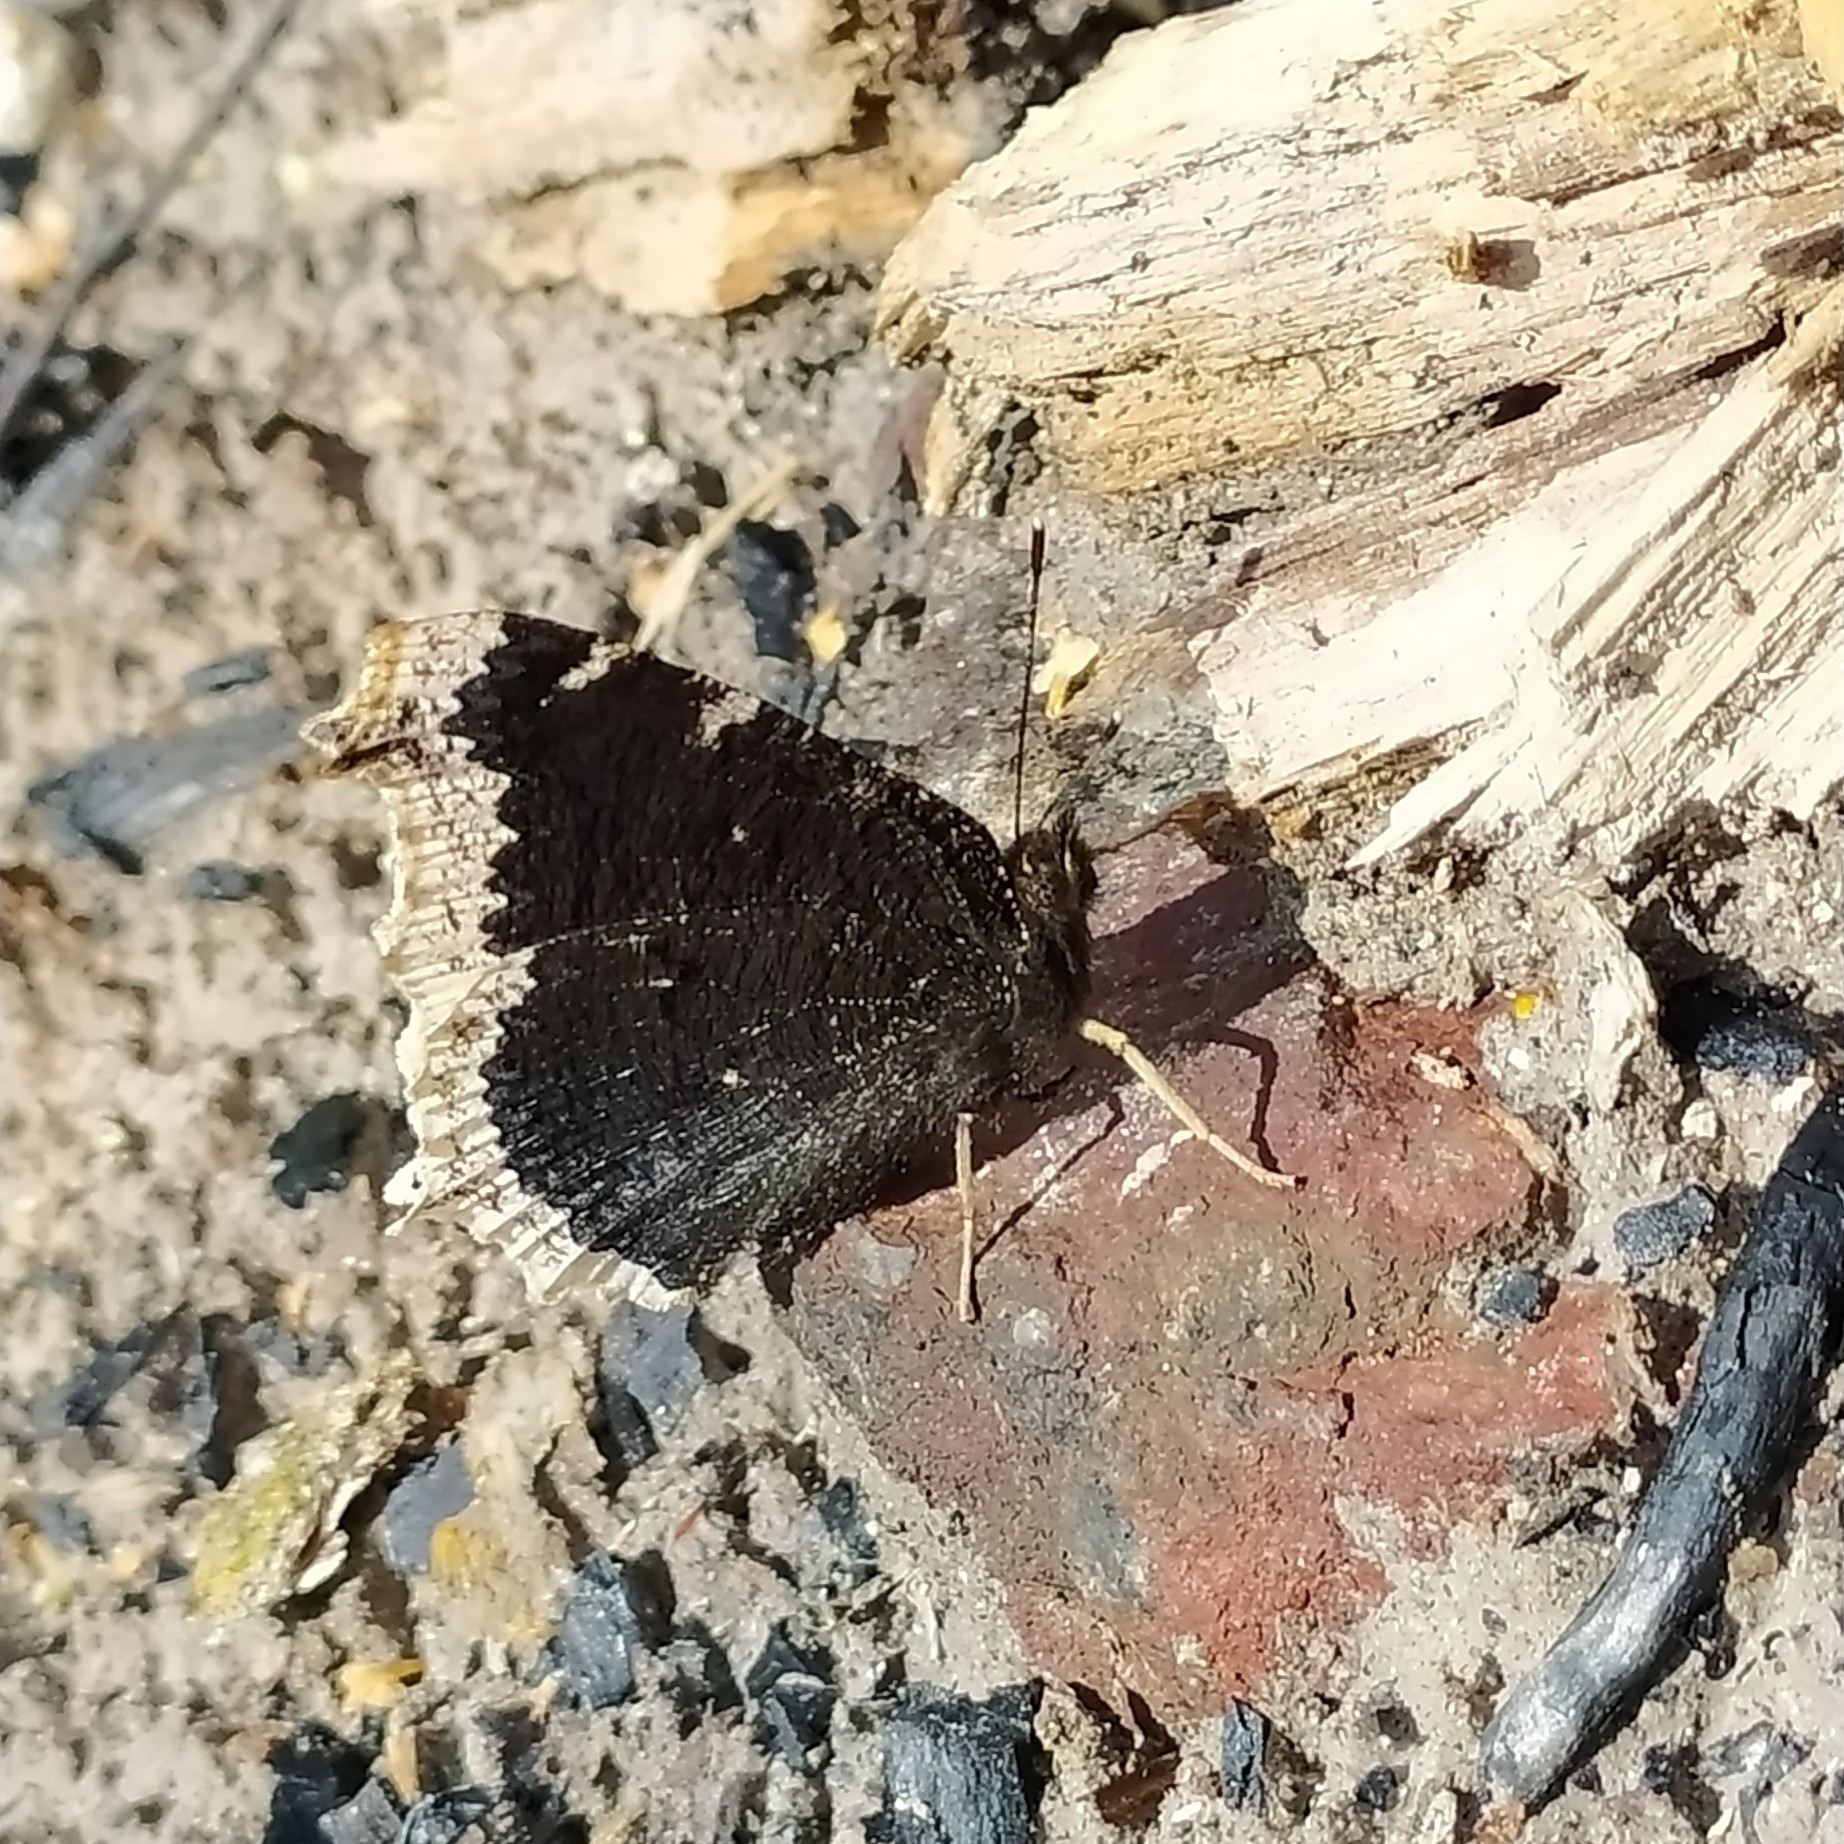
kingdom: Animalia
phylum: Arthropoda
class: Insecta
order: Lepidoptera
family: Nymphalidae
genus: Nymphalis
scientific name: Nymphalis antiopa
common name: Camberwell beauty
